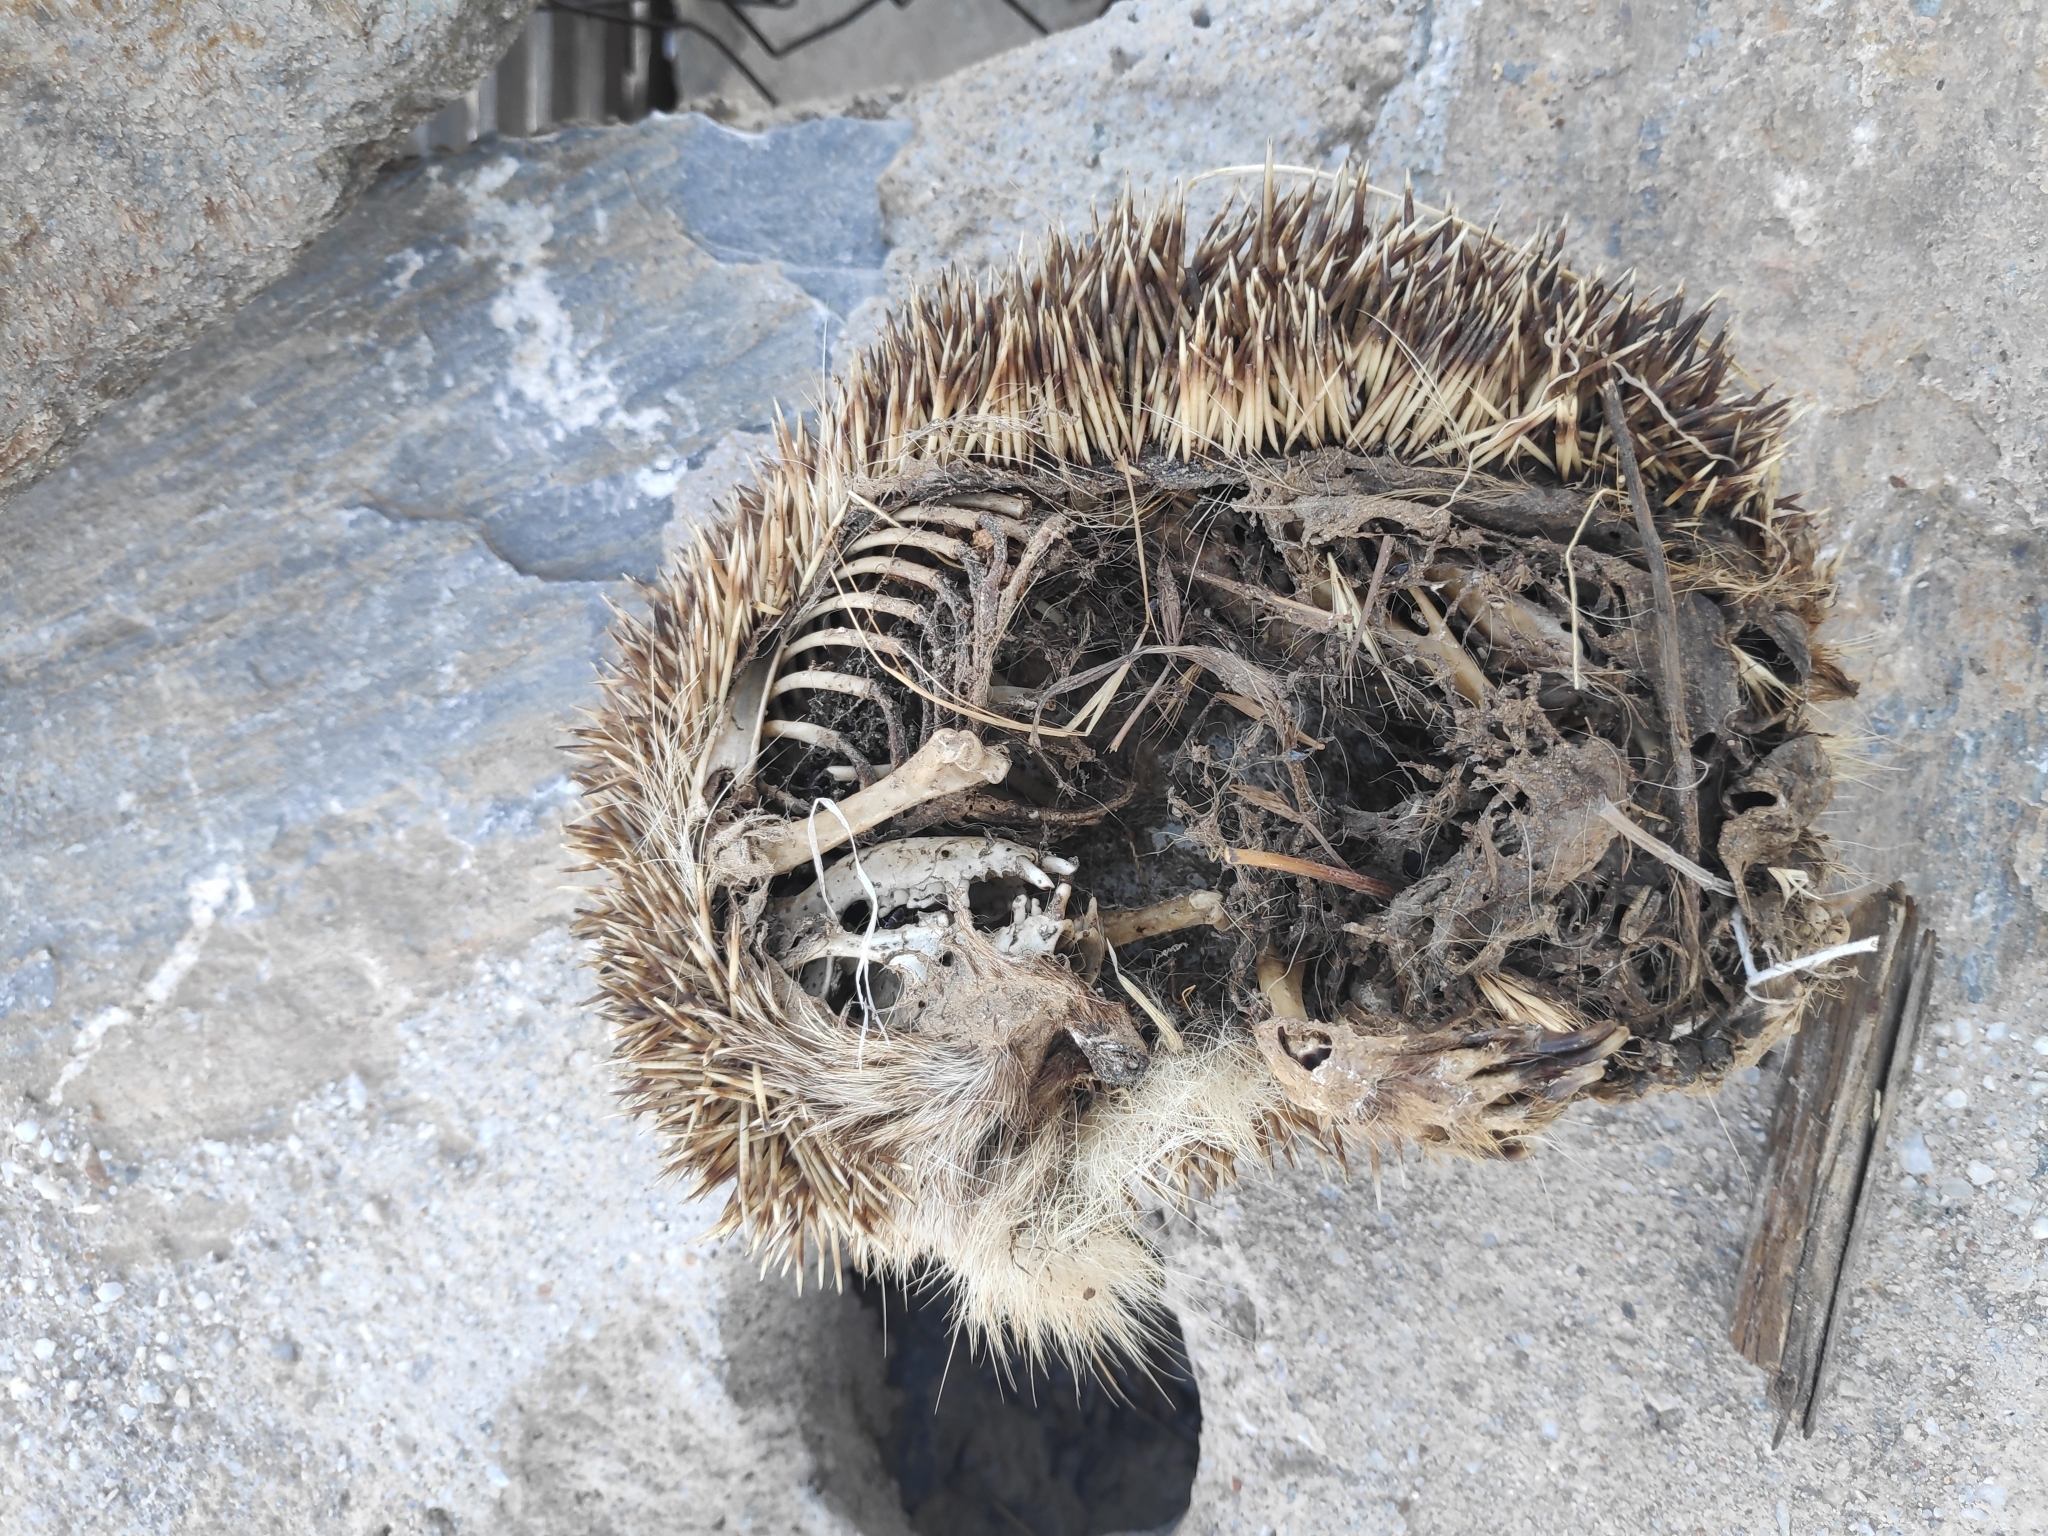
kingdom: Animalia
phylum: Chordata
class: Mammalia
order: Erinaceomorpha
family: Erinaceidae
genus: Erinaceus
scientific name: Erinaceus roumanicus
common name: Northern white-breasted hedgehog
